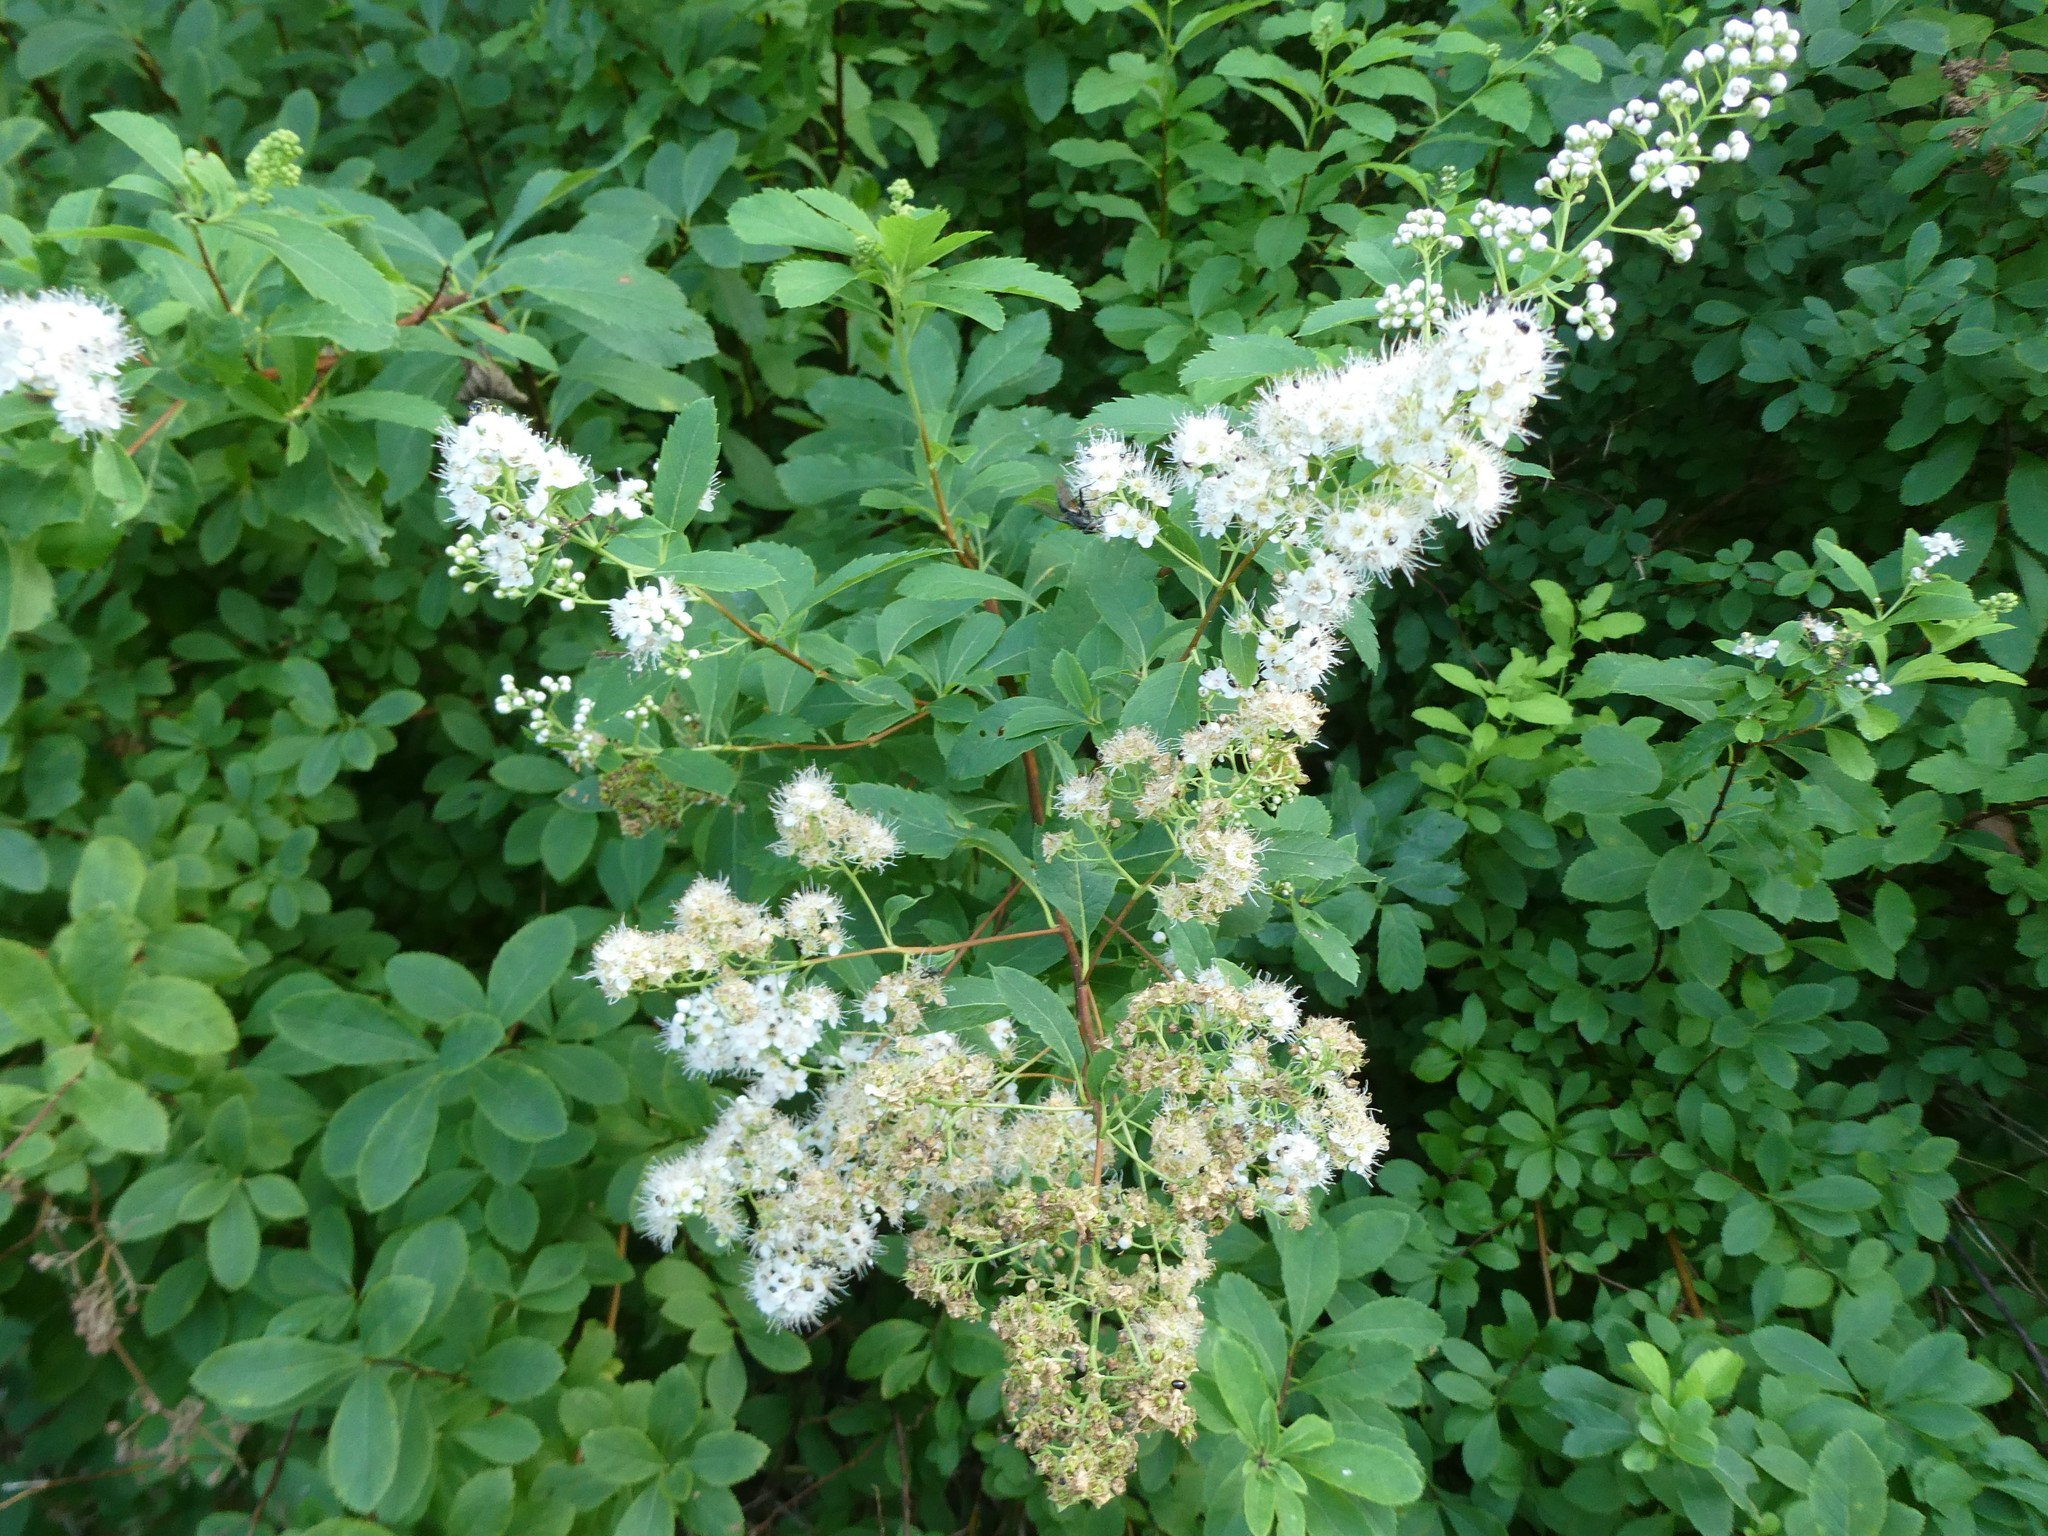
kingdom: Plantae
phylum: Tracheophyta
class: Magnoliopsida
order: Rosales
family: Rosaceae
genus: Spiraea
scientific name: Spiraea alba
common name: Pale bridewort
